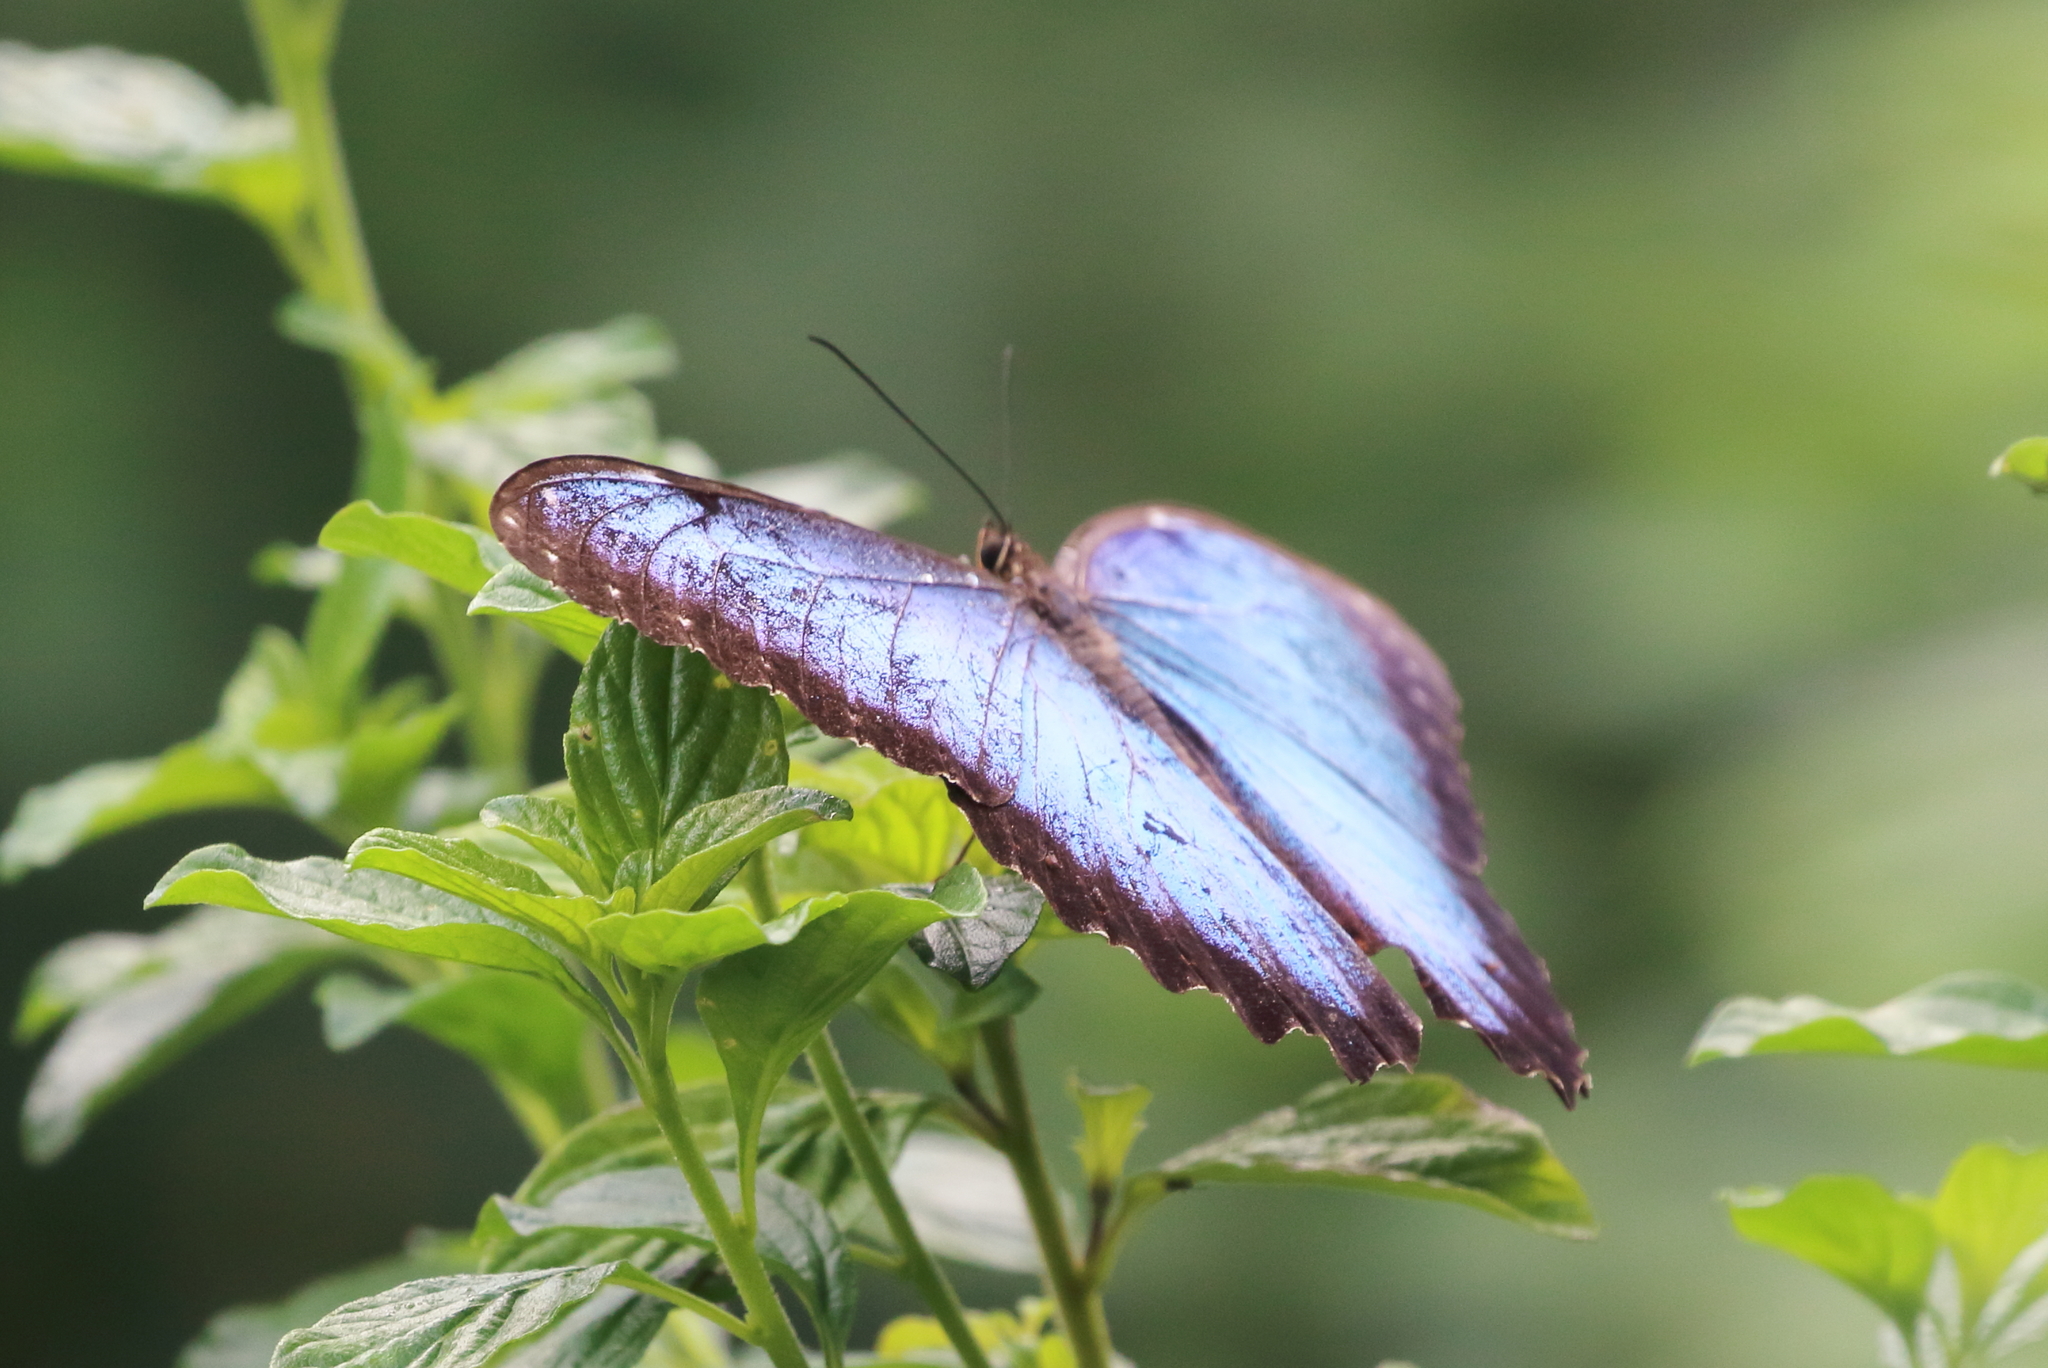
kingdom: Animalia
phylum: Arthropoda
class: Insecta
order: Lepidoptera
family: Nymphalidae
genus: Morpho
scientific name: Morpho helenor
